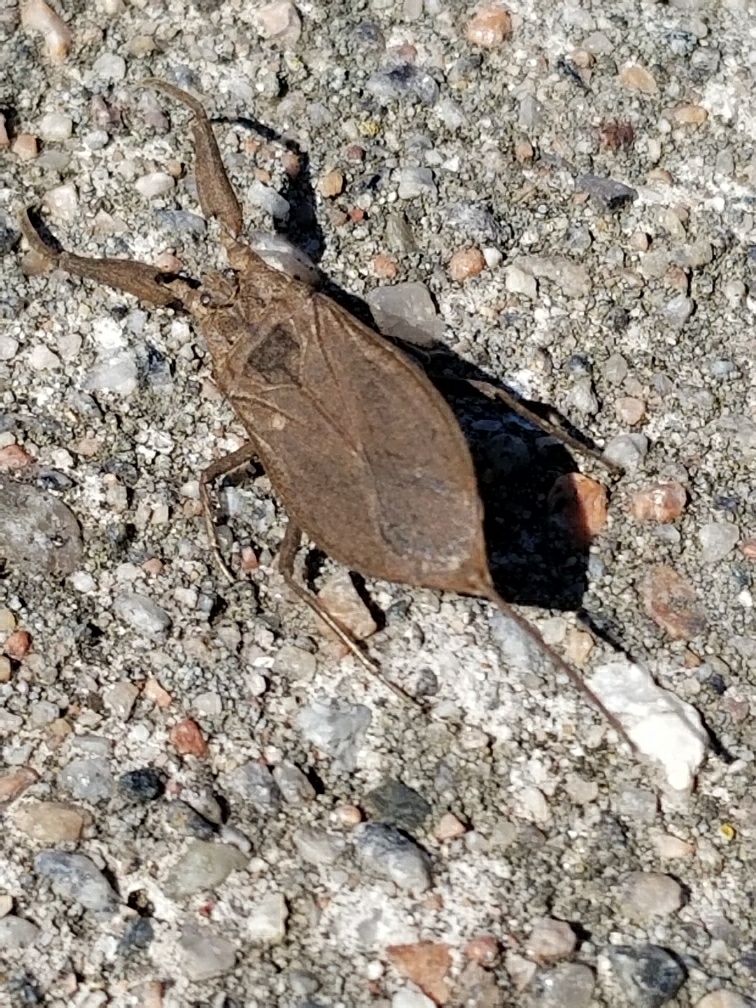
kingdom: Animalia
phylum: Arthropoda
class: Insecta
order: Hemiptera
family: Nepidae
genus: Nepa
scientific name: Nepa cinerea
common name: Water scorpion
